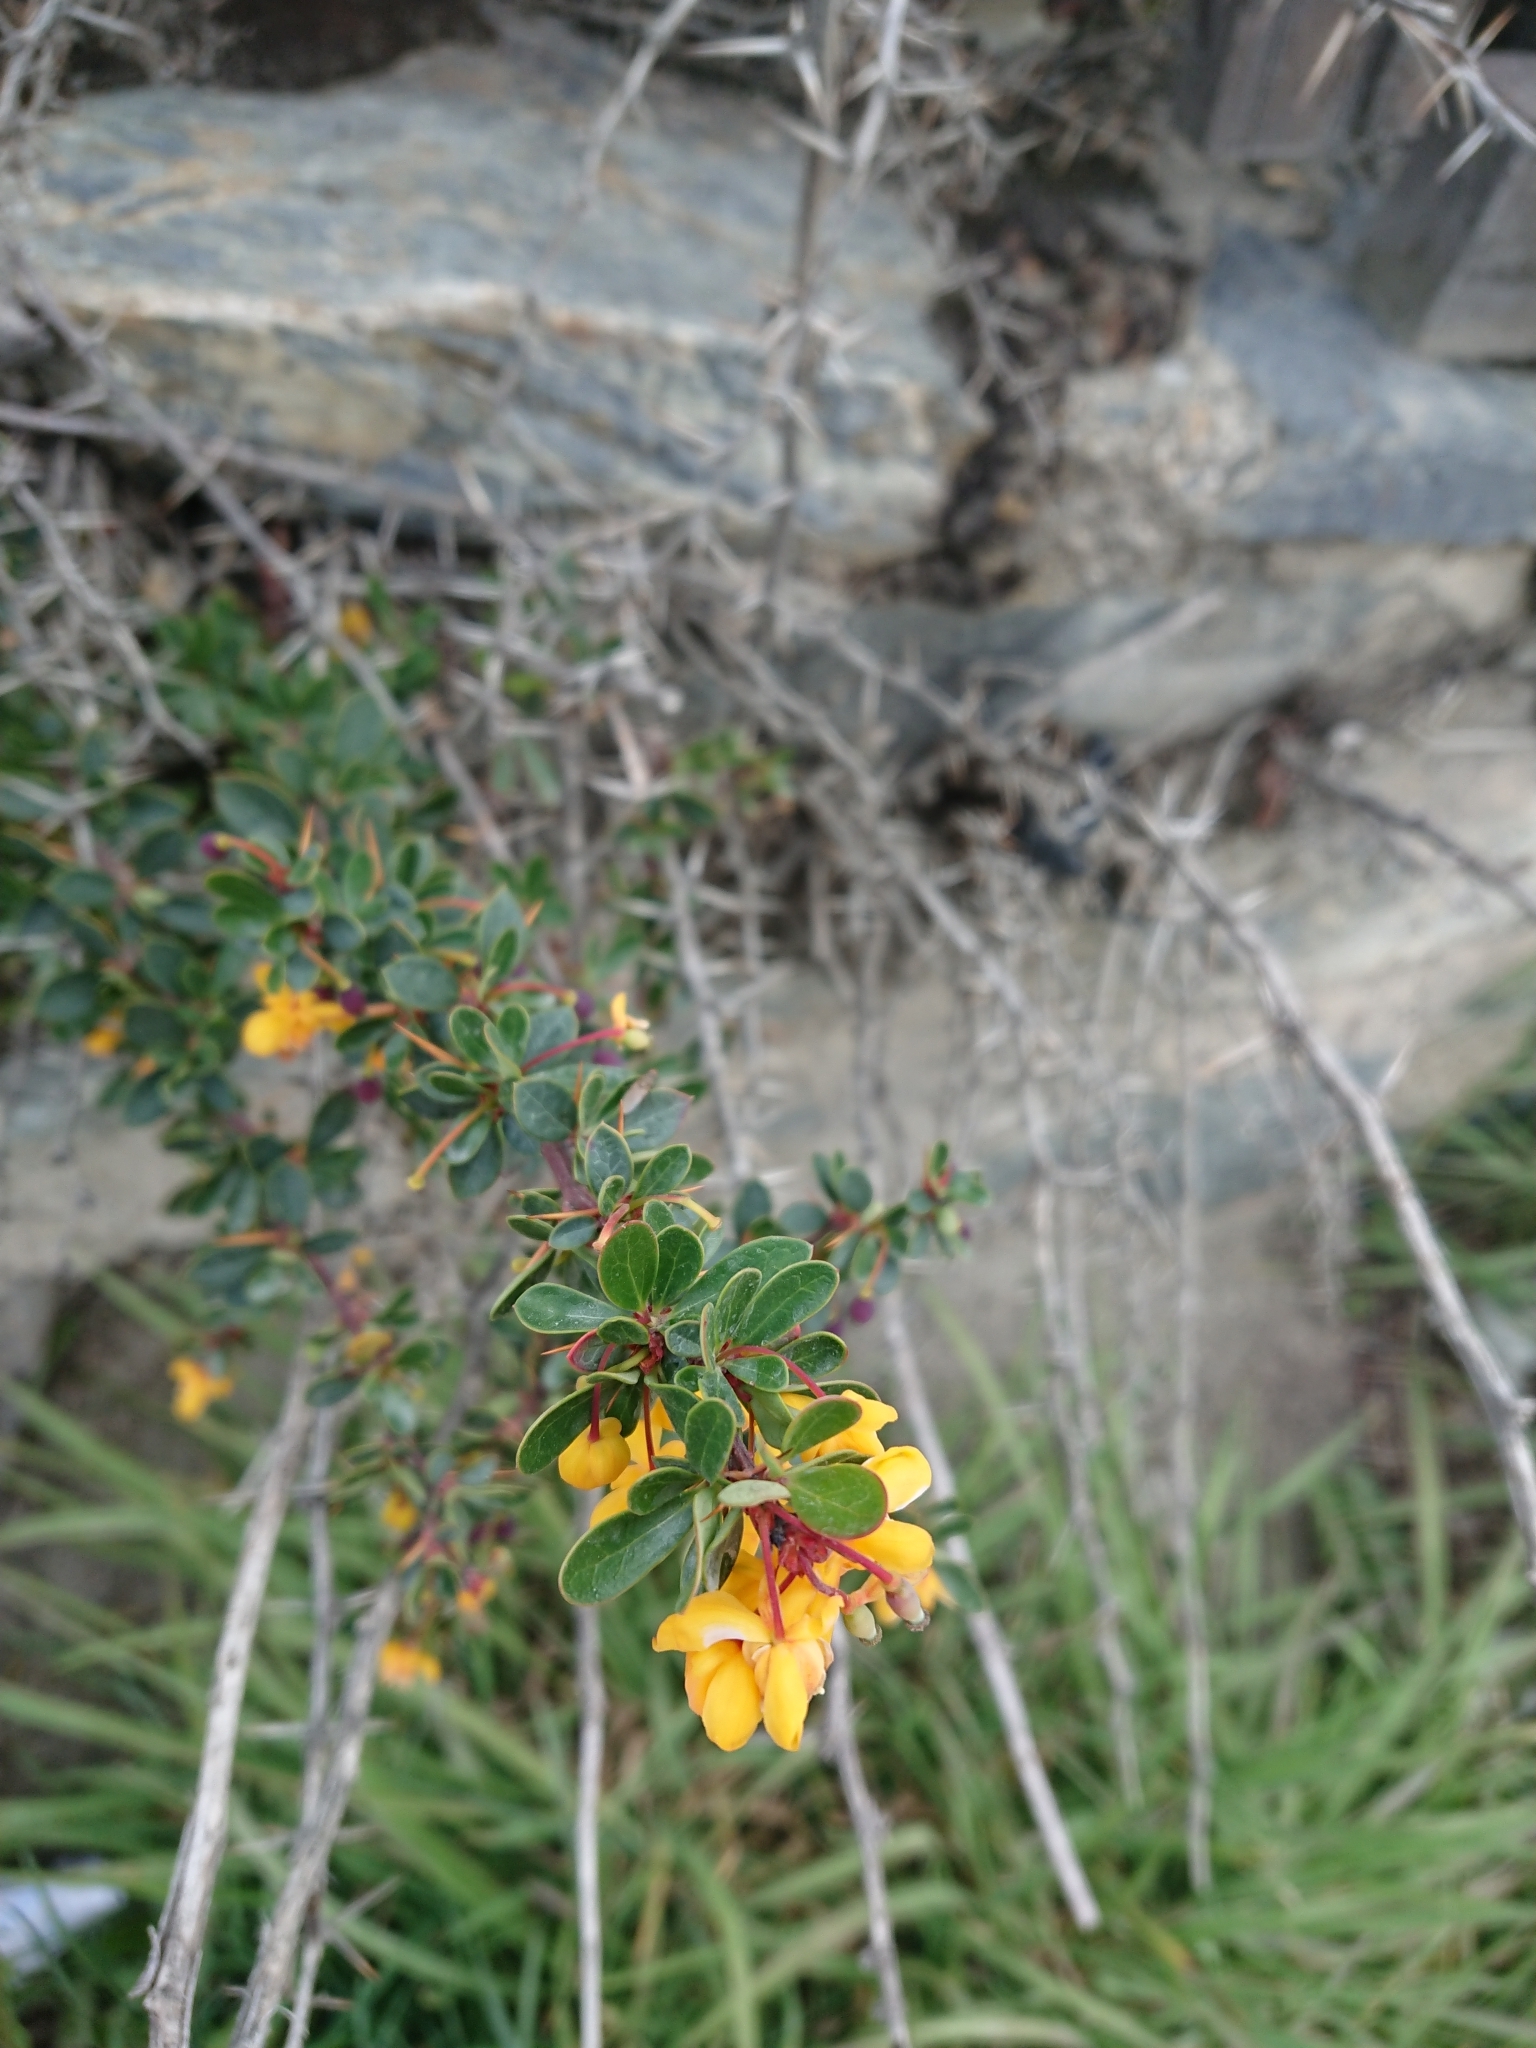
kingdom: Plantae
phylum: Tracheophyta
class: Magnoliopsida
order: Ranunculales
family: Berberidaceae
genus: Berberis
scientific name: Berberis microphylla
